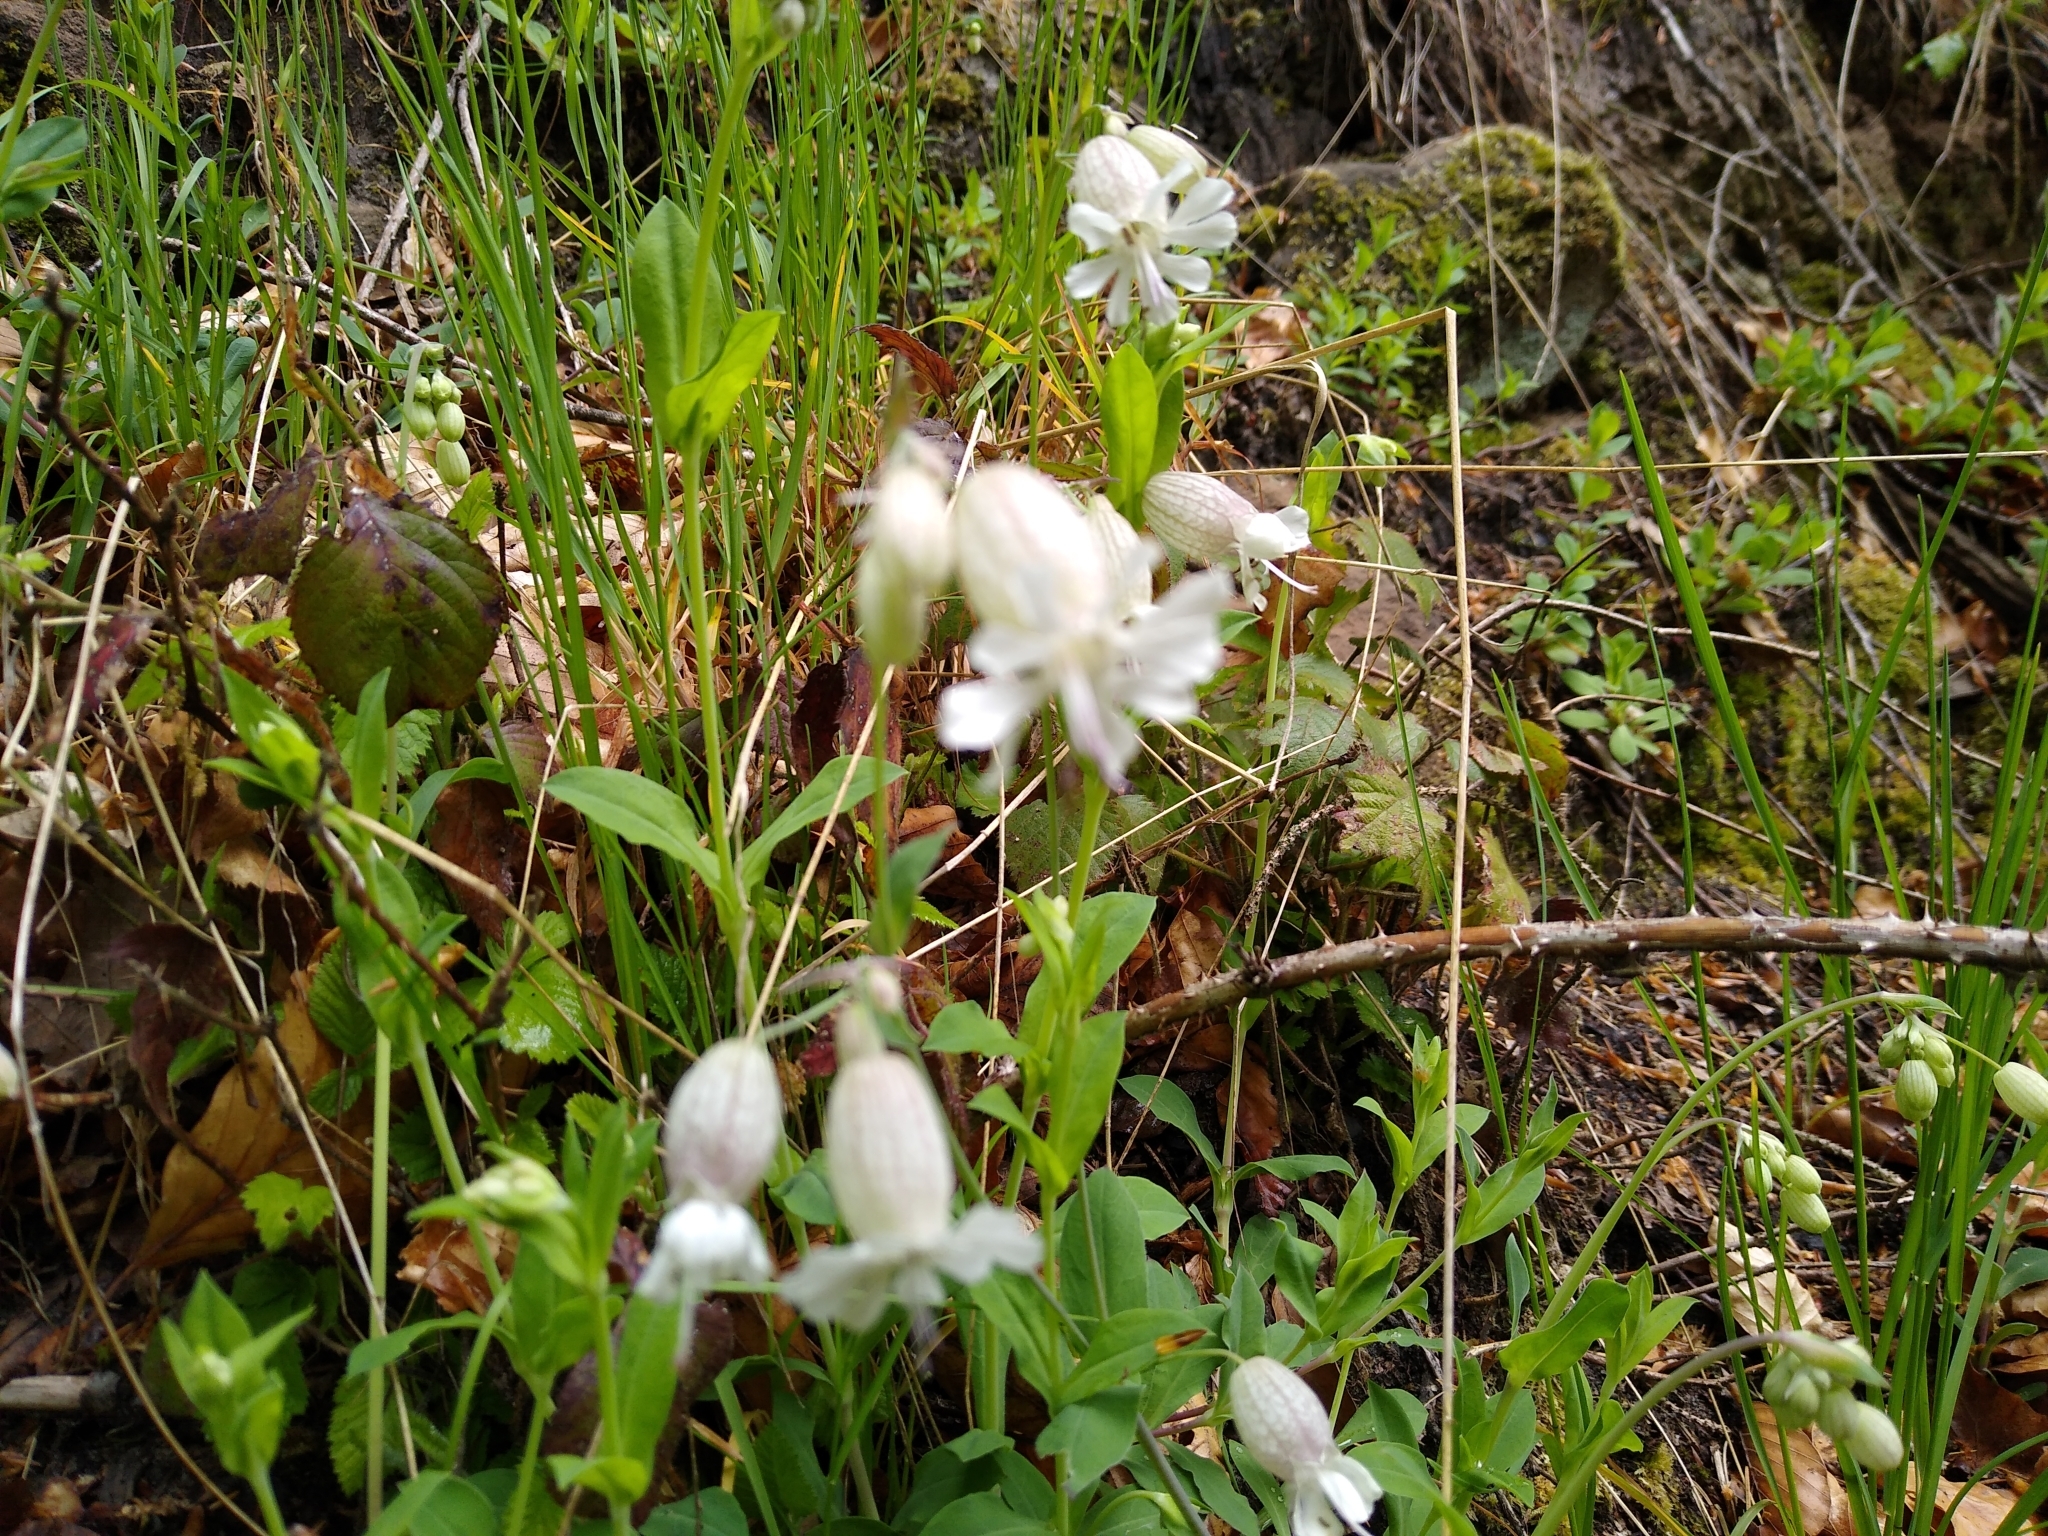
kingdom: Plantae
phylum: Tracheophyta
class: Magnoliopsida
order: Caryophyllales
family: Caryophyllaceae
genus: Silene
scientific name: Silene vulgaris
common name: Bladder campion
